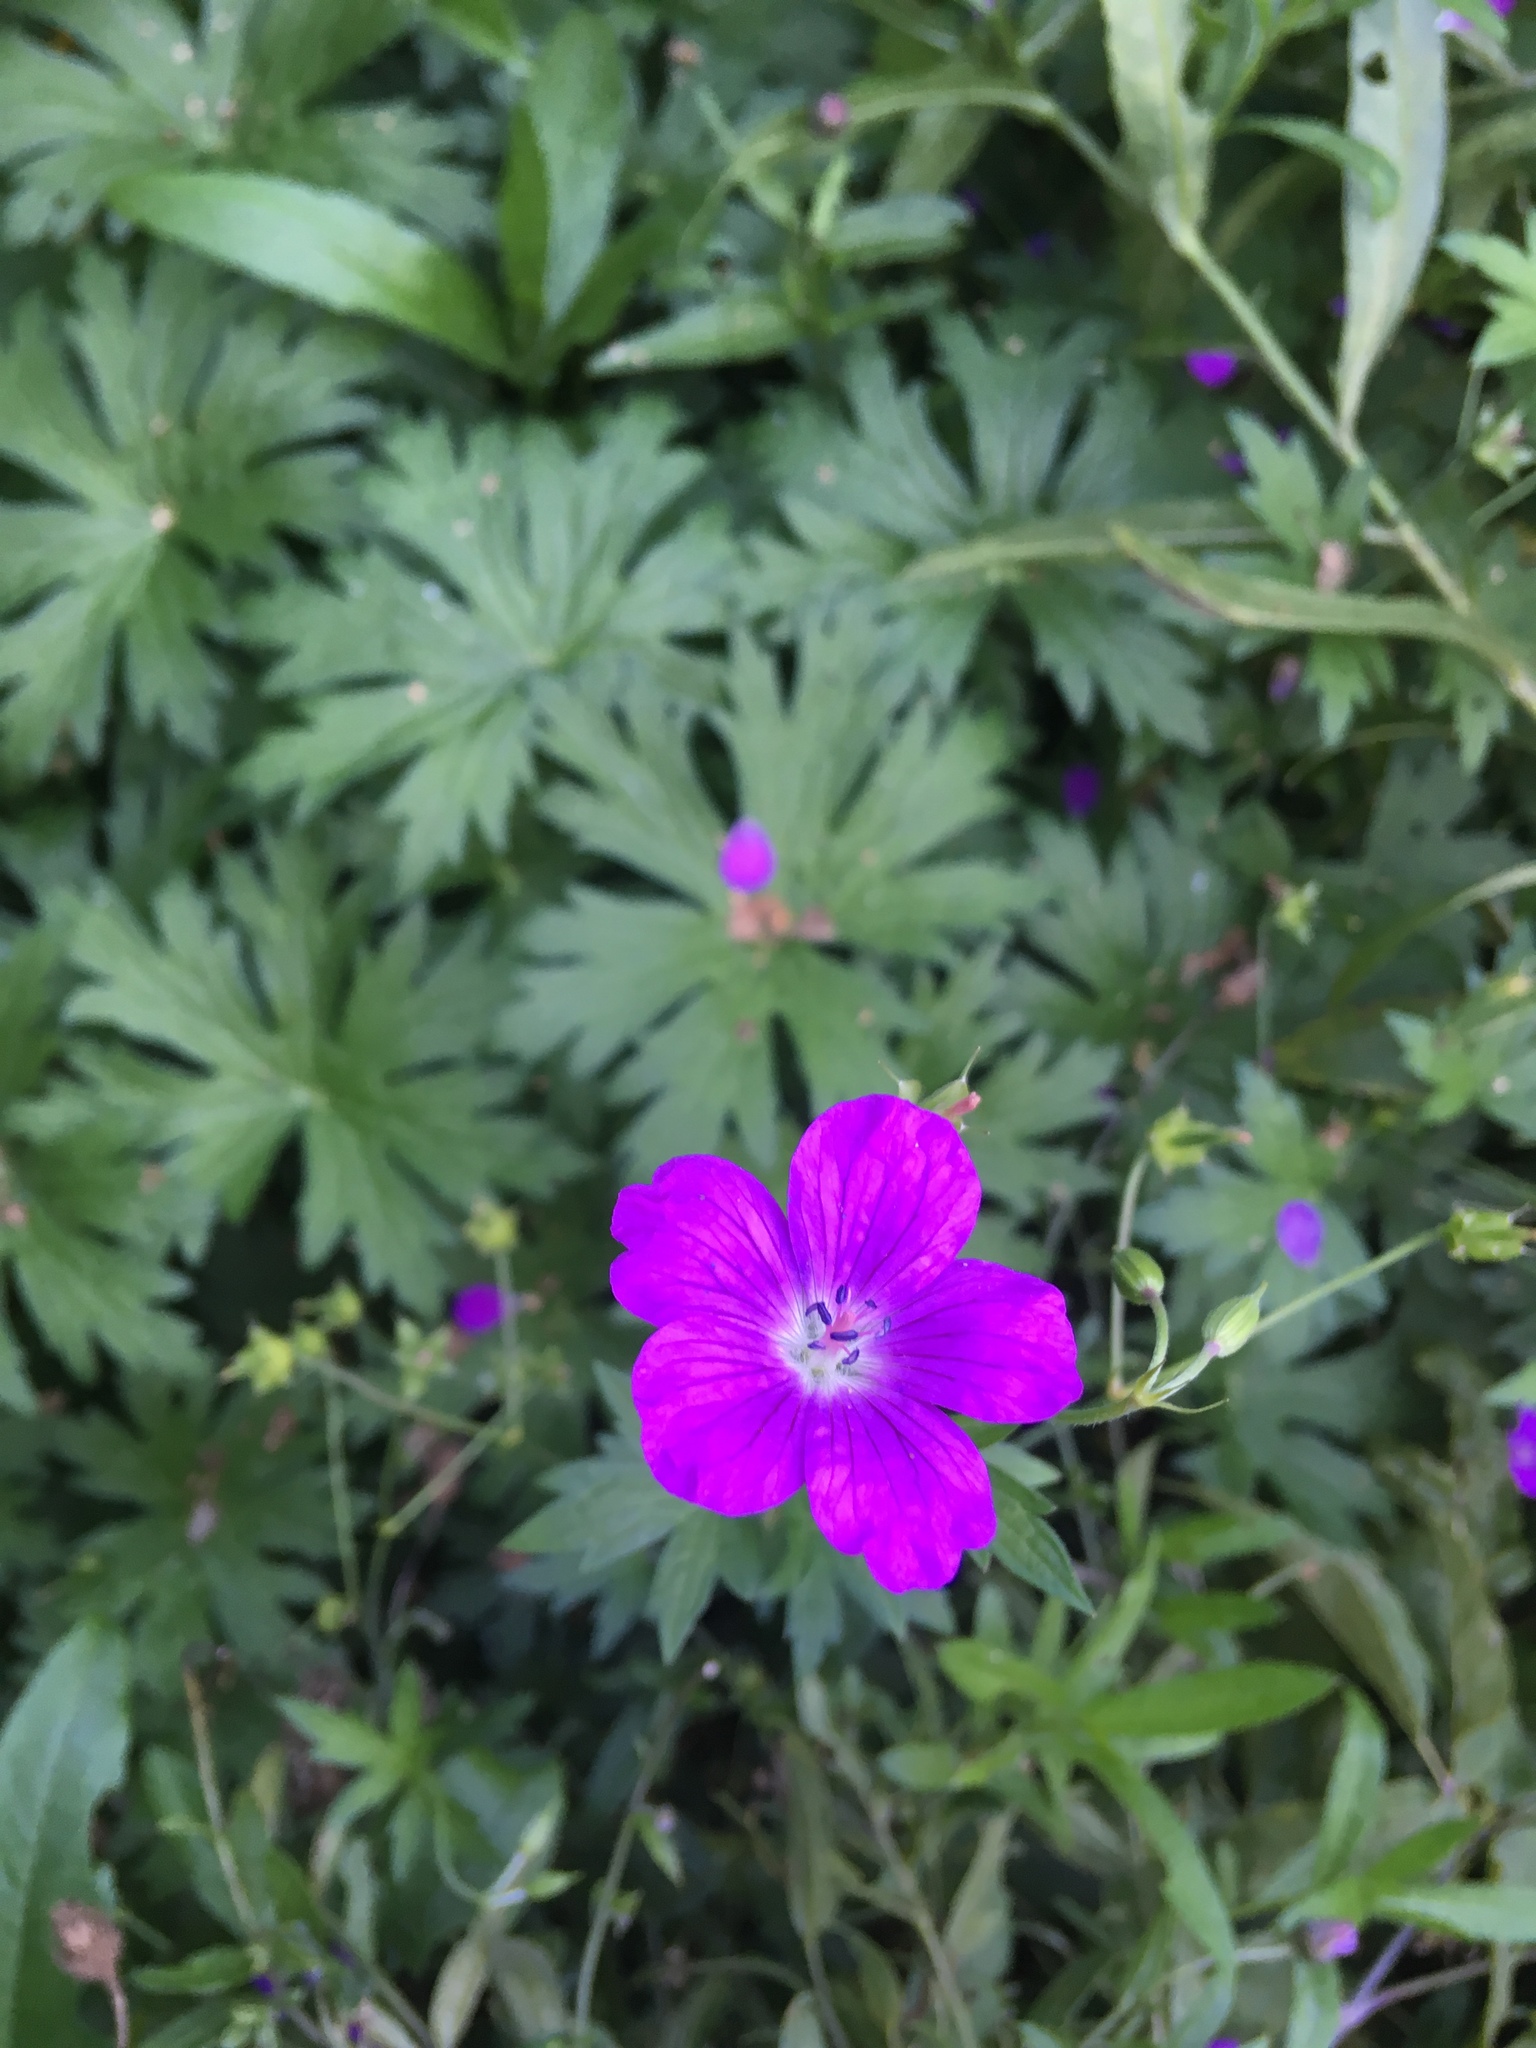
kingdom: Plantae
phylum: Tracheophyta
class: Magnoliopsida
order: Geraniales
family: Geraniaceae
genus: Geranium
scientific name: Geranium palustre
